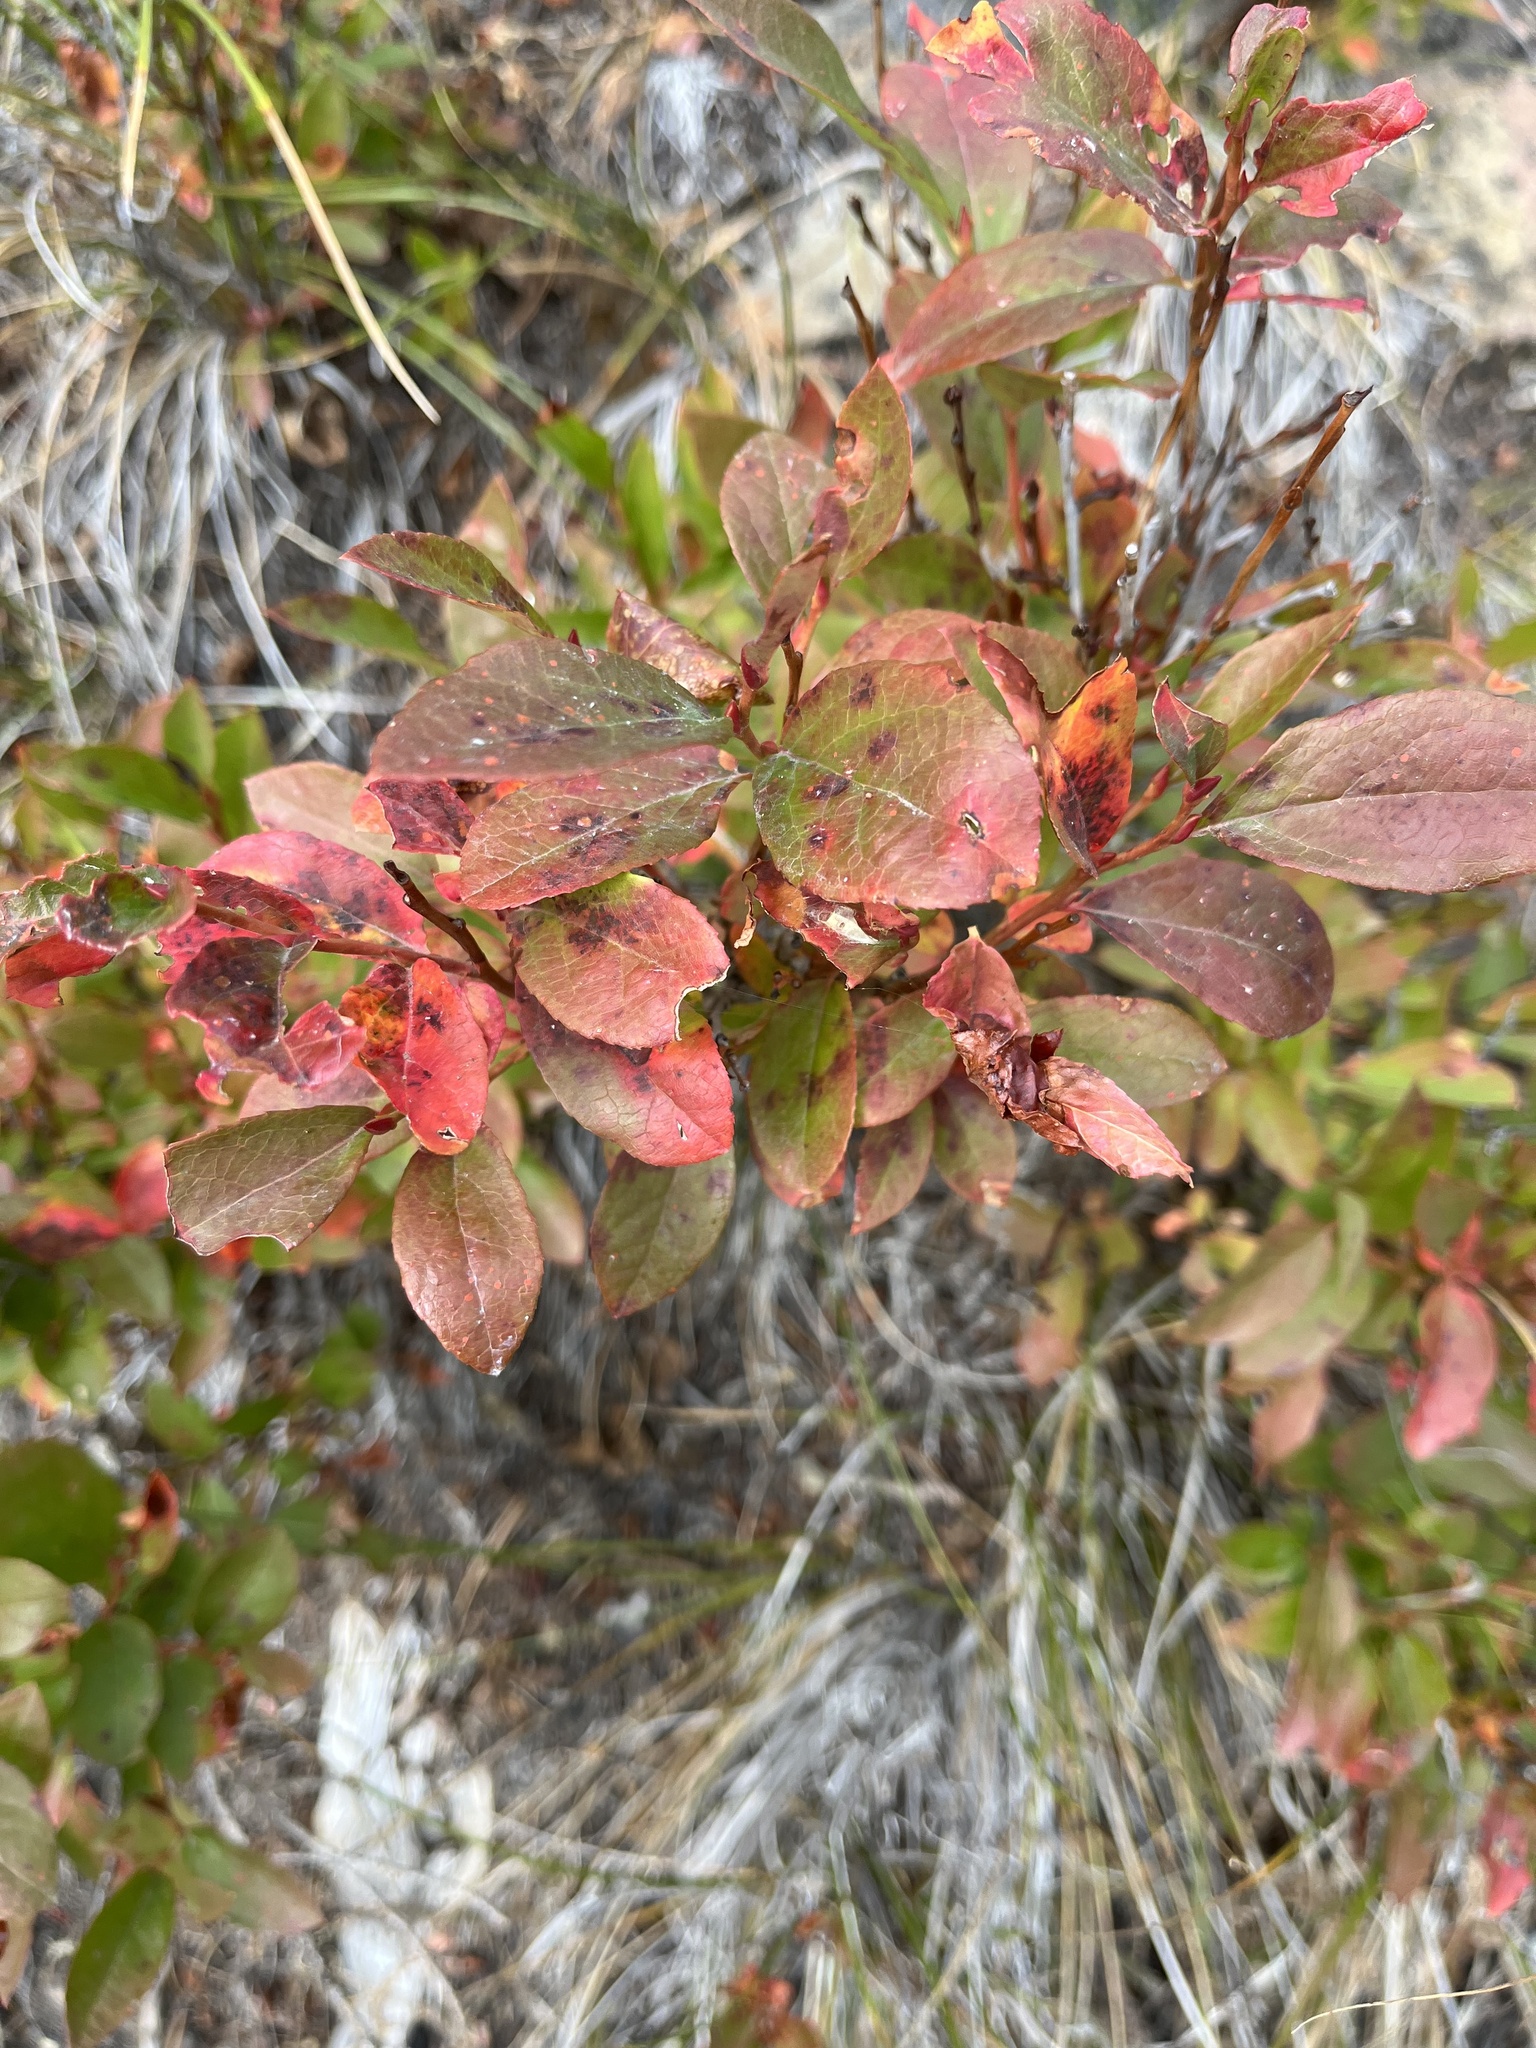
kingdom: Plantae
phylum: Tracheophyta
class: Magnoliopsida
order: Ericales
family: Ericaceae
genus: Vaccinium
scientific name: Vaccinium membranaceum
